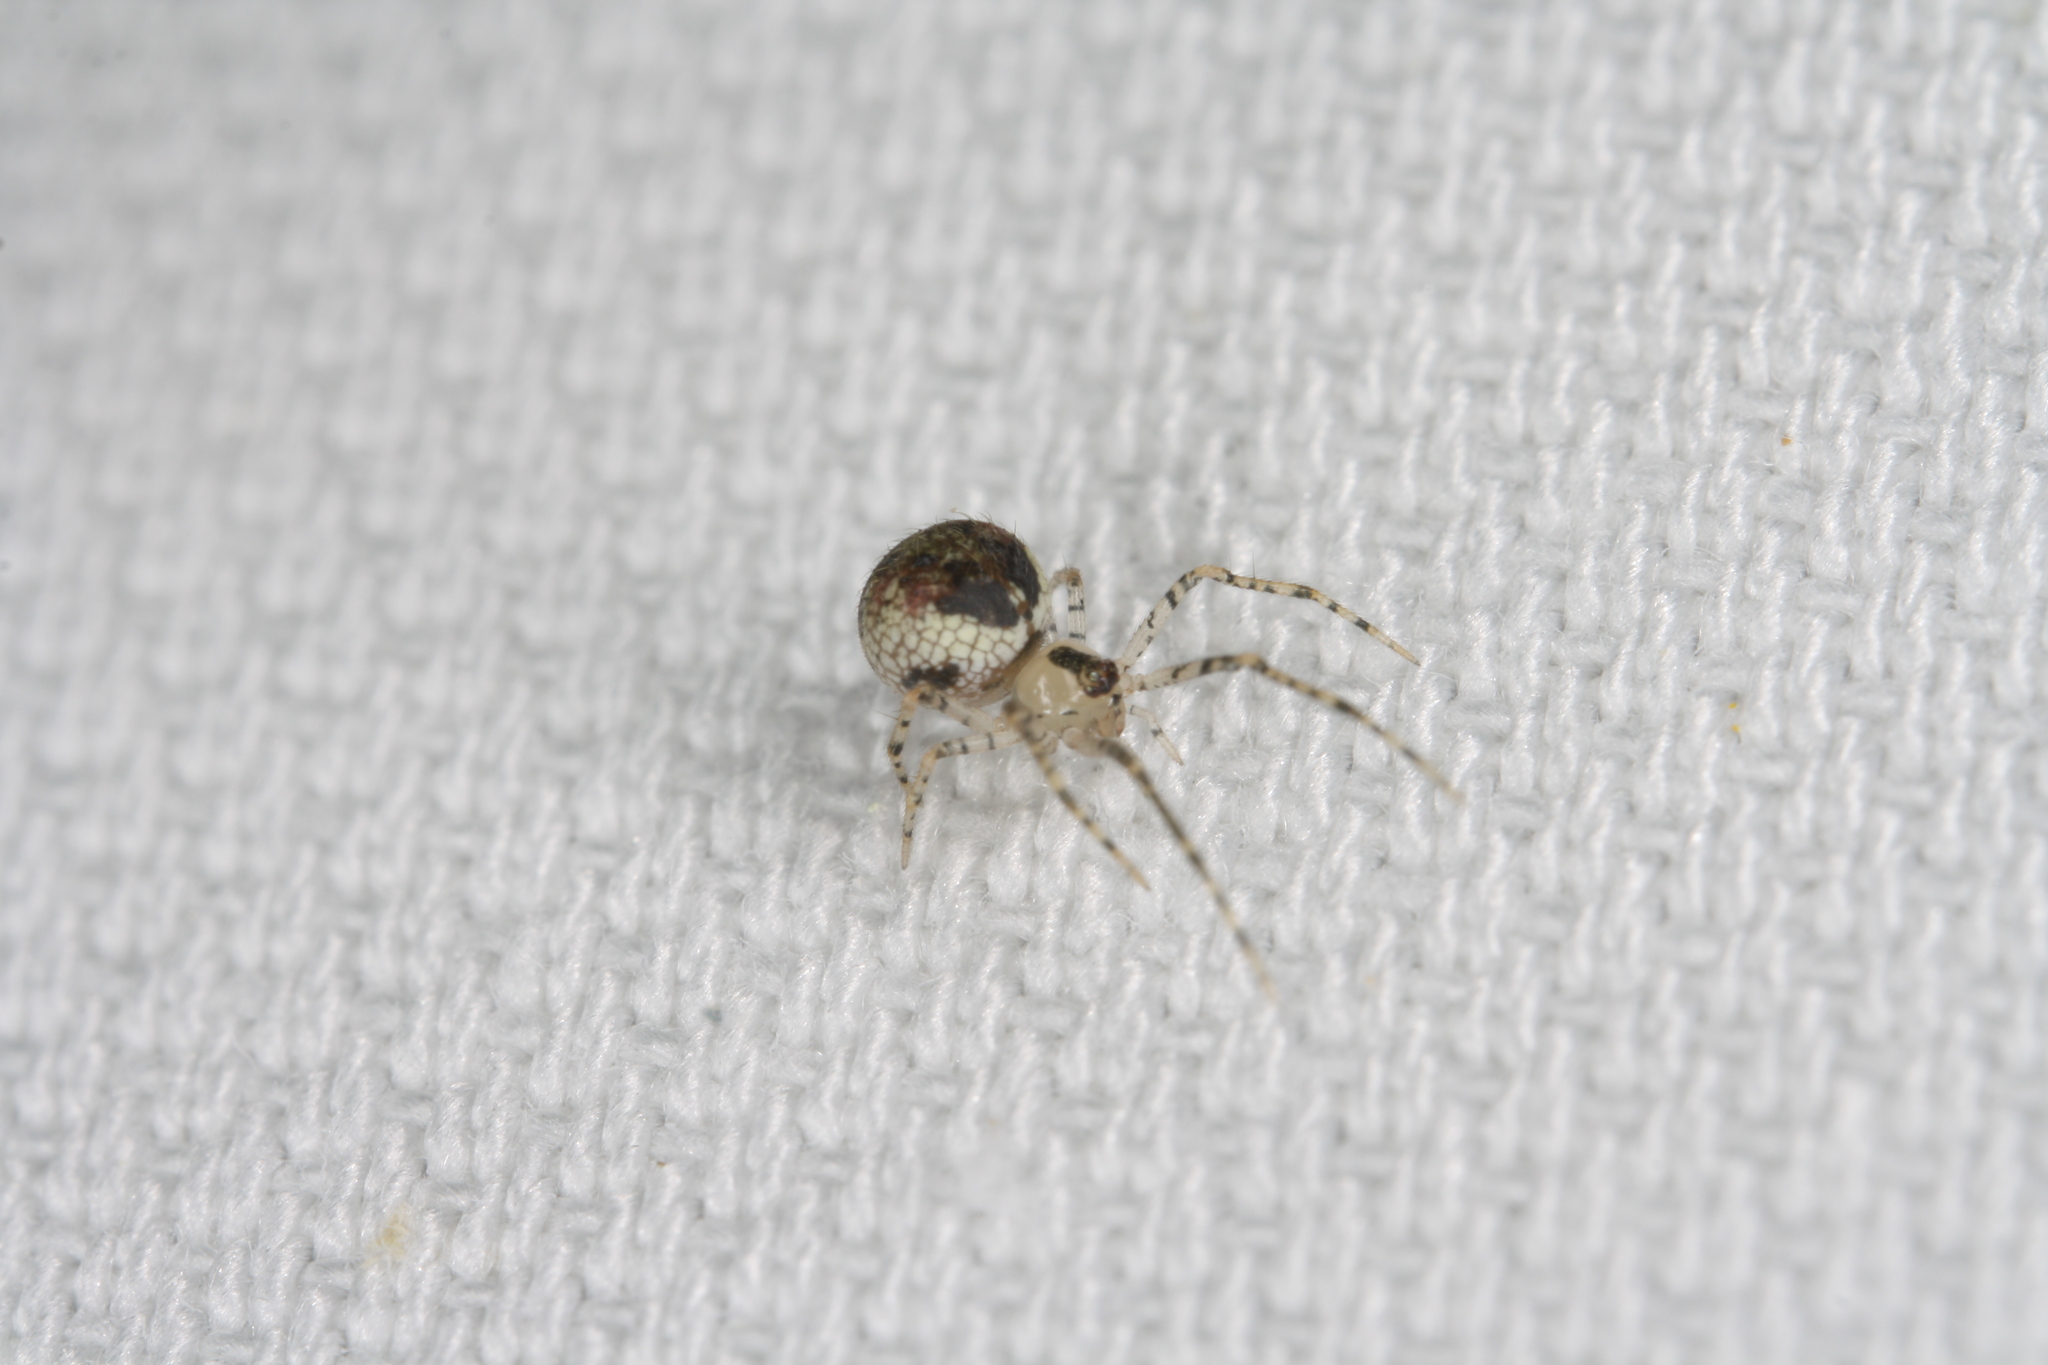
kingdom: Animalia
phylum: Arthropoda
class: Arachnida
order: Araneae
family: Theridiidae
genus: Platnickina
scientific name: Platnickina tincta
